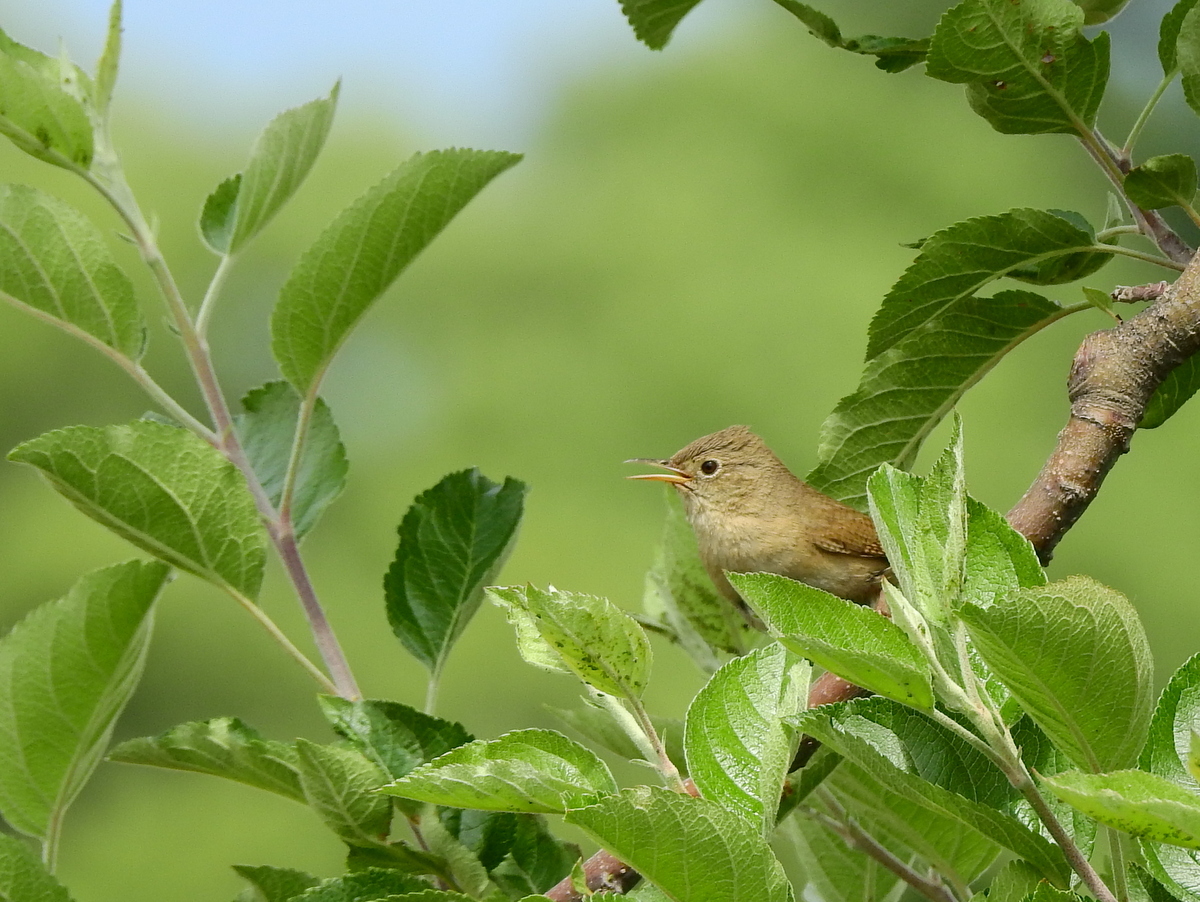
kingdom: Animalia
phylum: Chordata
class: Aves
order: Passeriformes
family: Troglodytidae
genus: Troglodytes
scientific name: Troglodytes aedon
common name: House wren
